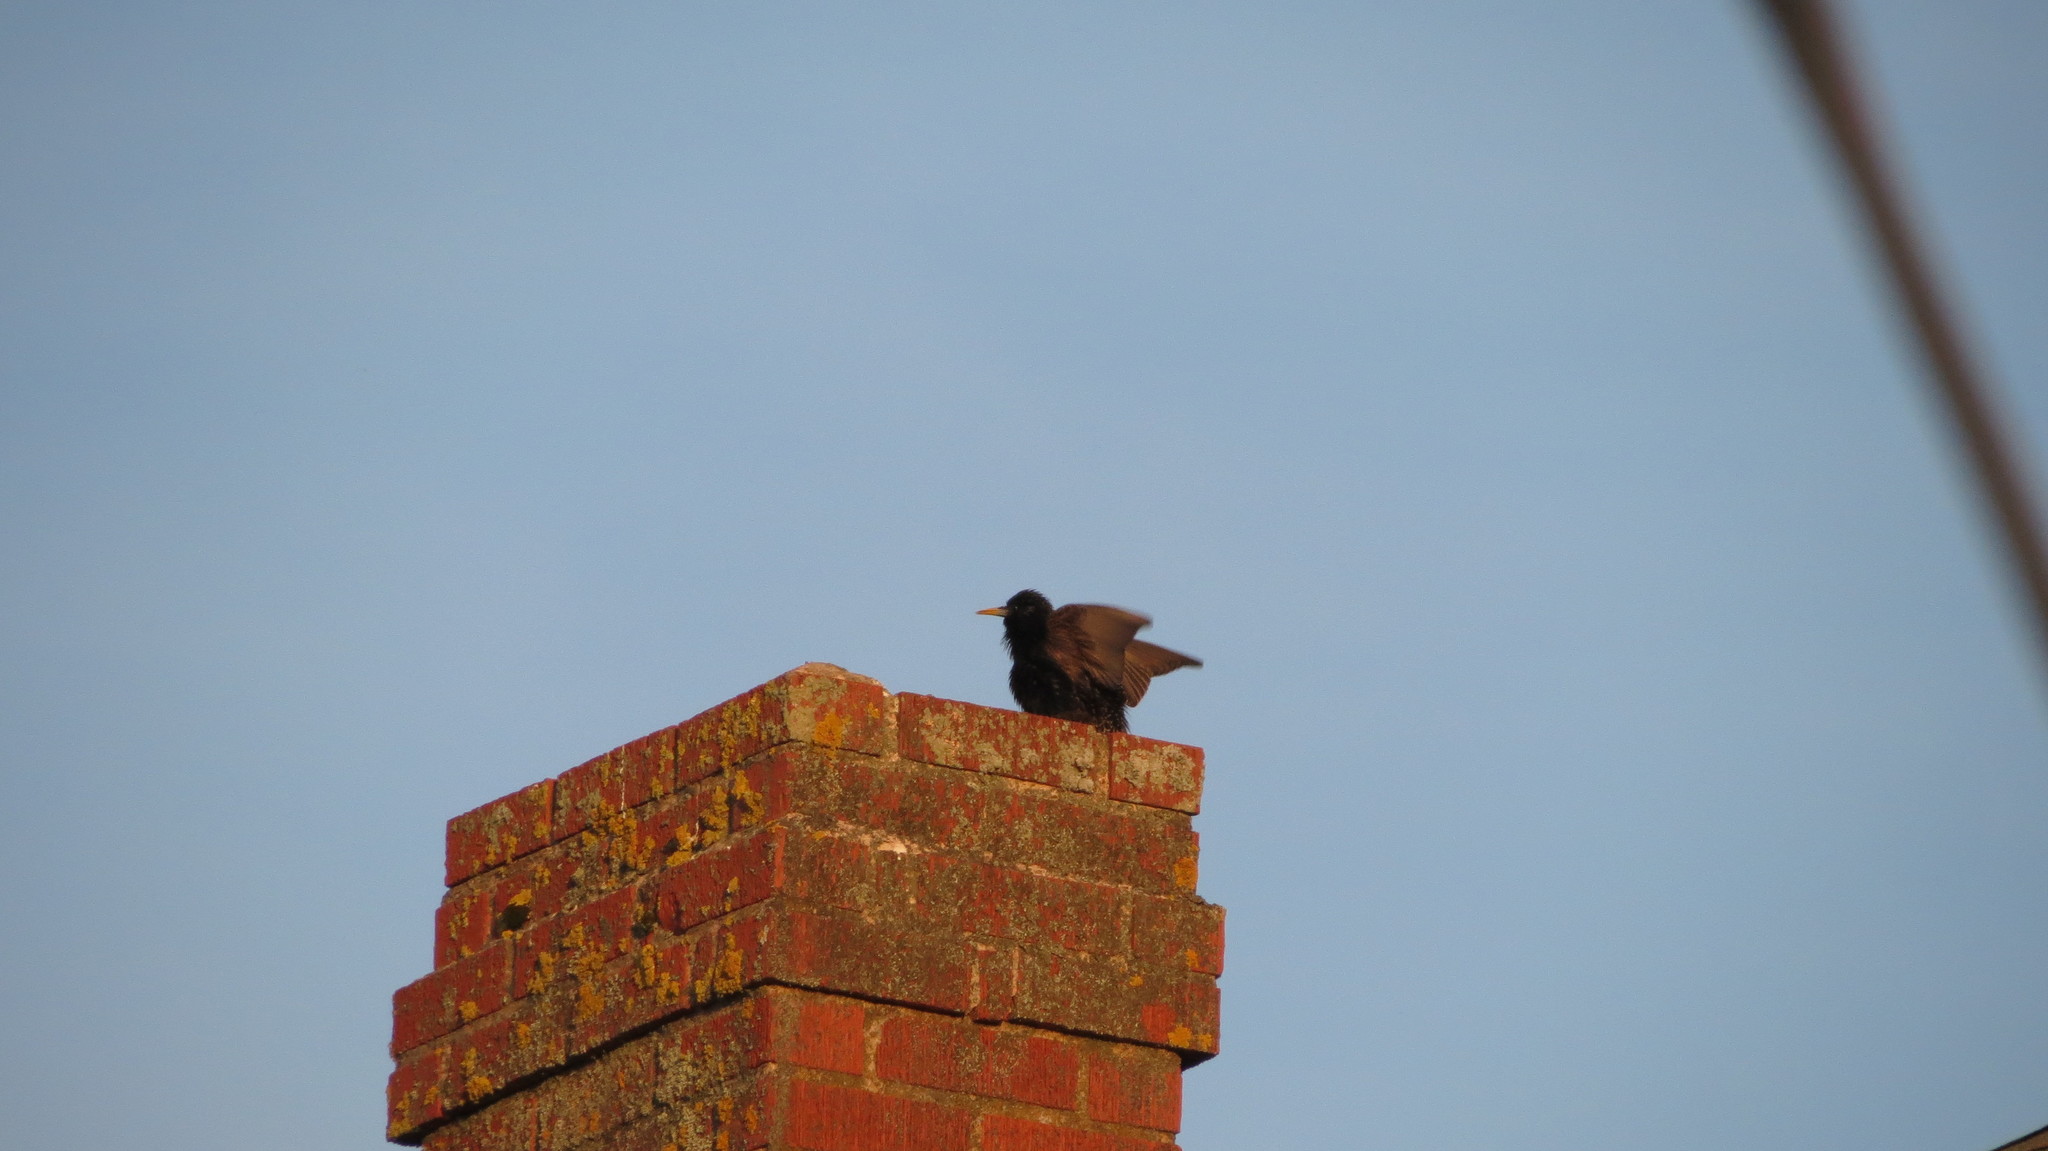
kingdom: Animalia
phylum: Chordata
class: Aves
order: Passeriformes
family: Sturnidae
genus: Sturnus
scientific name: Sturnus vulgaris
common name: Common starling
